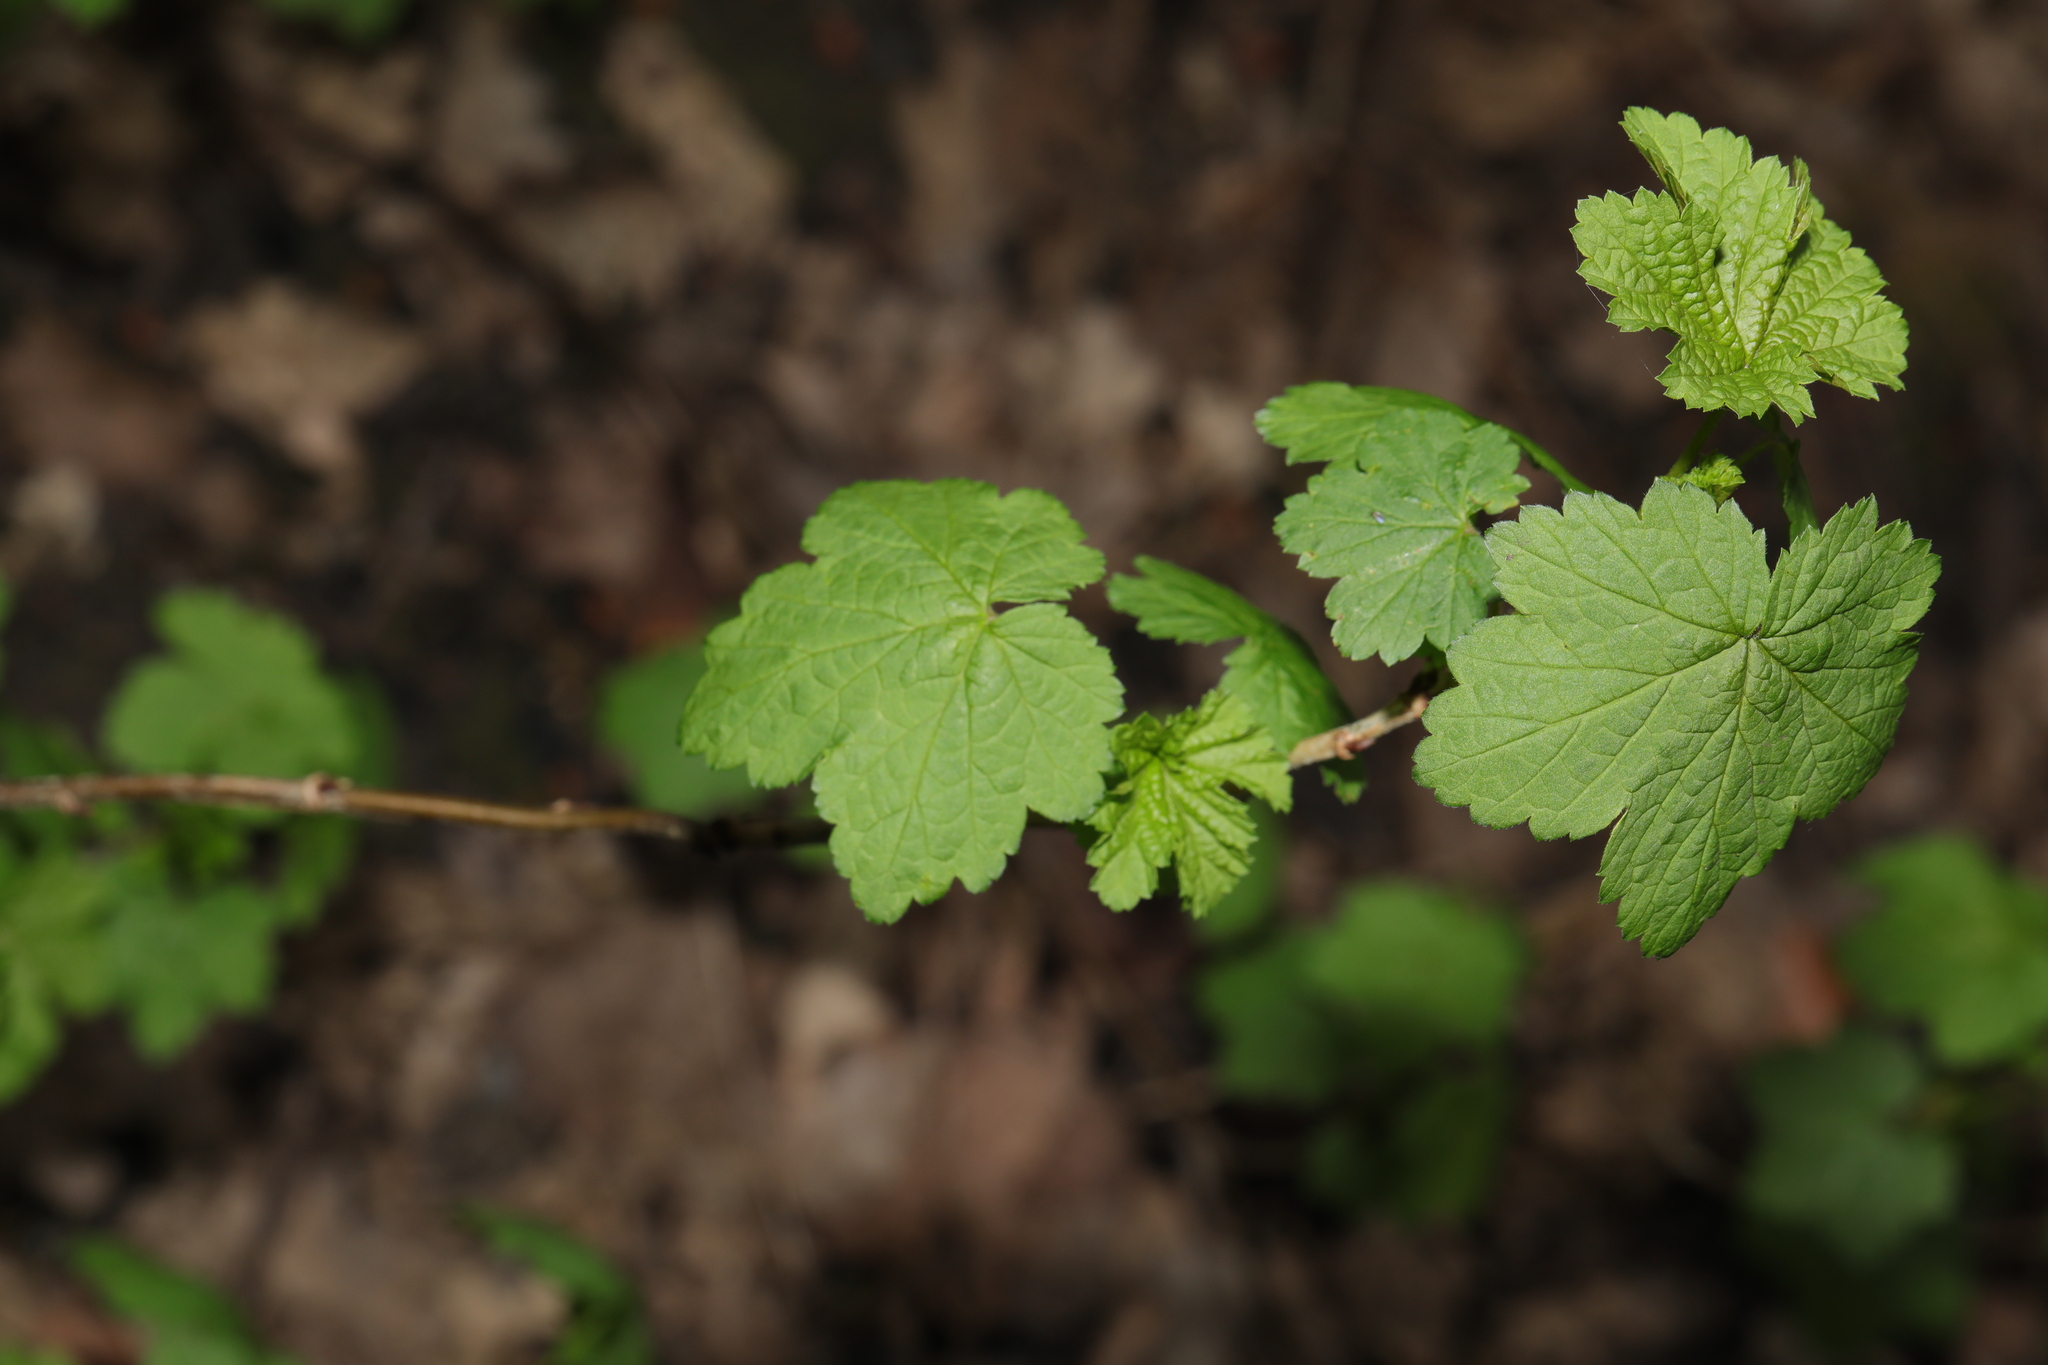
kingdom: Plantae
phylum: Tracheophyta
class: Magnoliopsida
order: Saxifragales
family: Grossulariaceae
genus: Ribes
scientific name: Ribes rubrum
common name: Red currant
